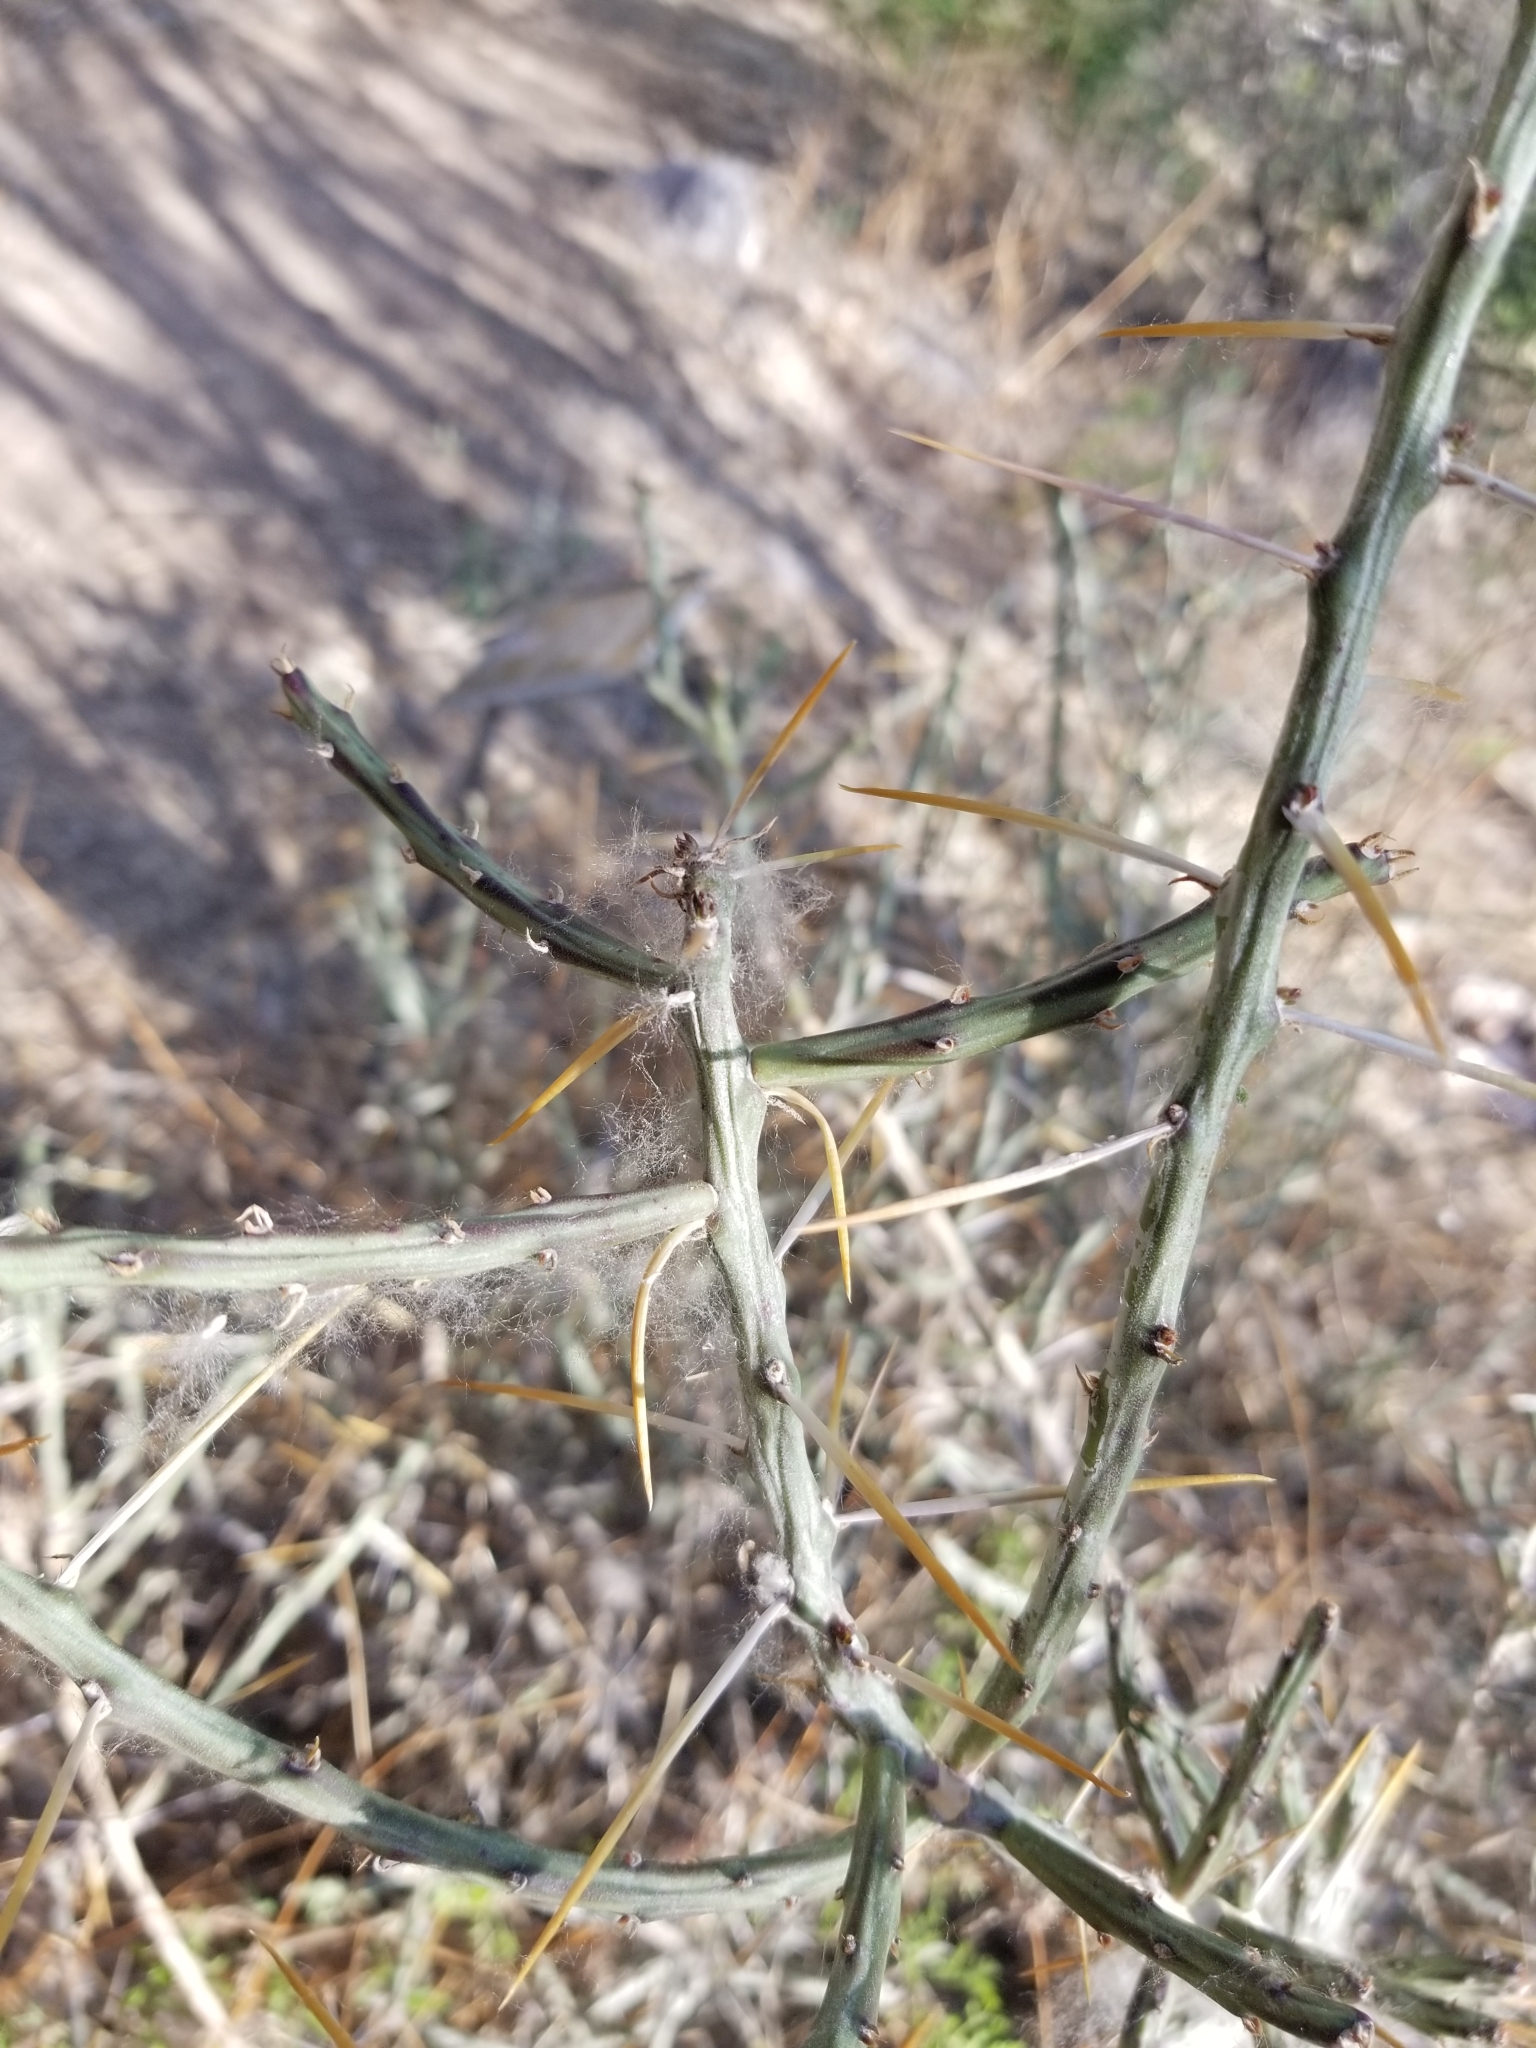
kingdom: Plantae
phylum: Tracheophyta
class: Magnoliopsida
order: Caryophyllales
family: Cactaceae
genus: Cylindropuntia
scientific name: Cylindropuntia leptocaulis
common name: Christmas cactus
